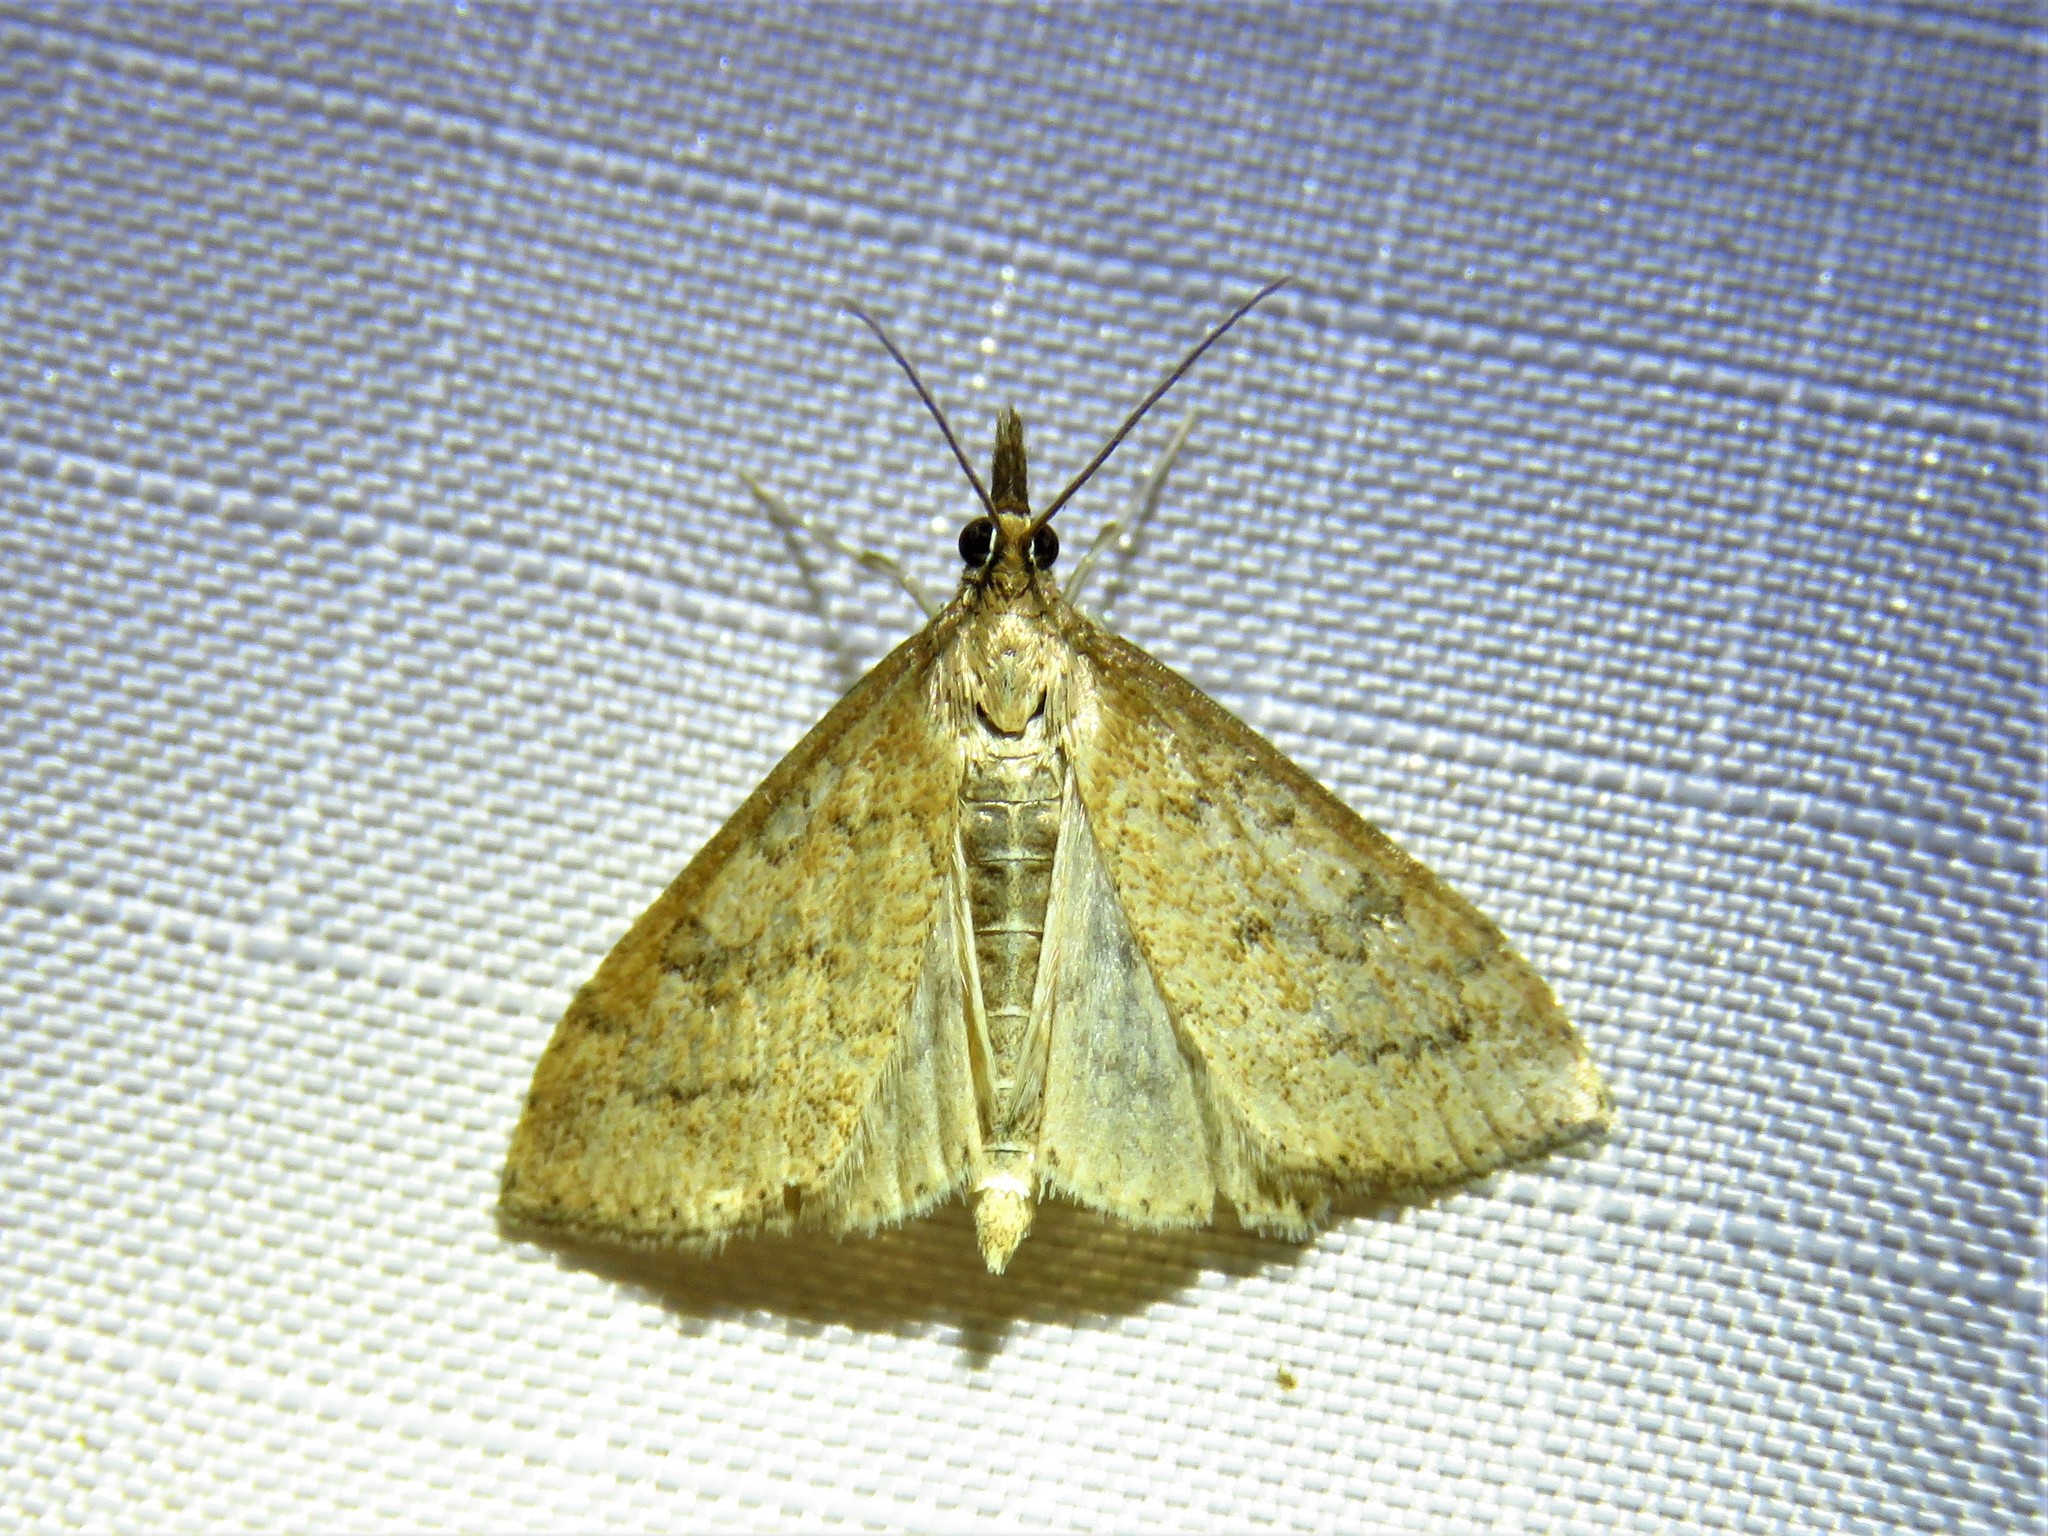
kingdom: Animalia
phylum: Arthropoda
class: Insecta
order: Lepidoptera
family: Crambidae
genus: Udea
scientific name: Udea rubigalis
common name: Celery leaftier moth
